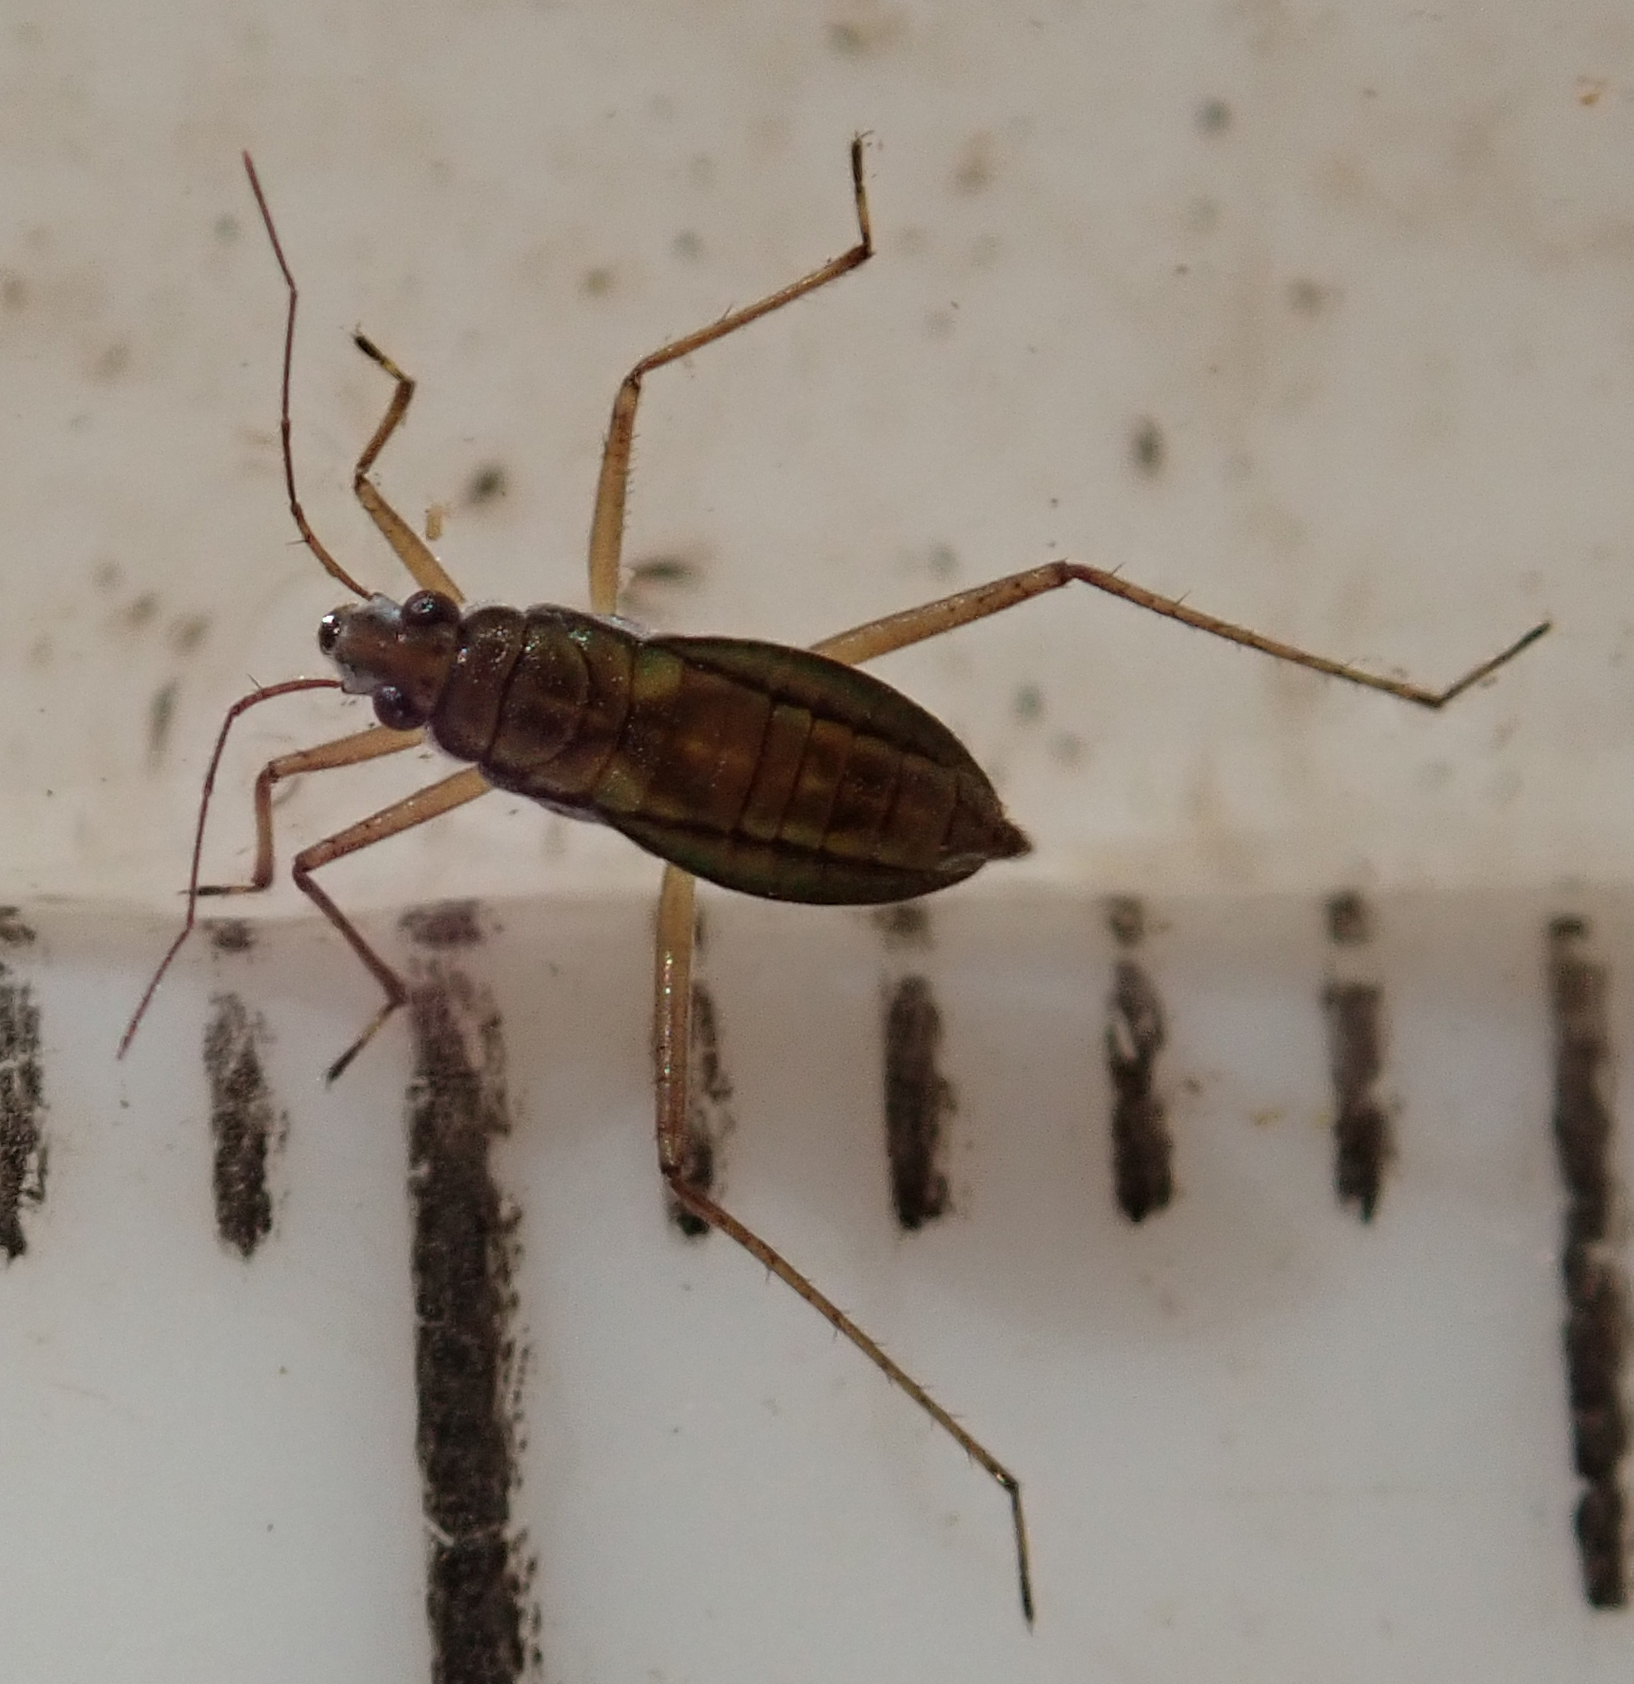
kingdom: Animalia
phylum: Arthropoda
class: Insecta
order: Hemiptera
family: Mesoveliidae
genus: Mesovelia
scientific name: Mesovelia vittigera
